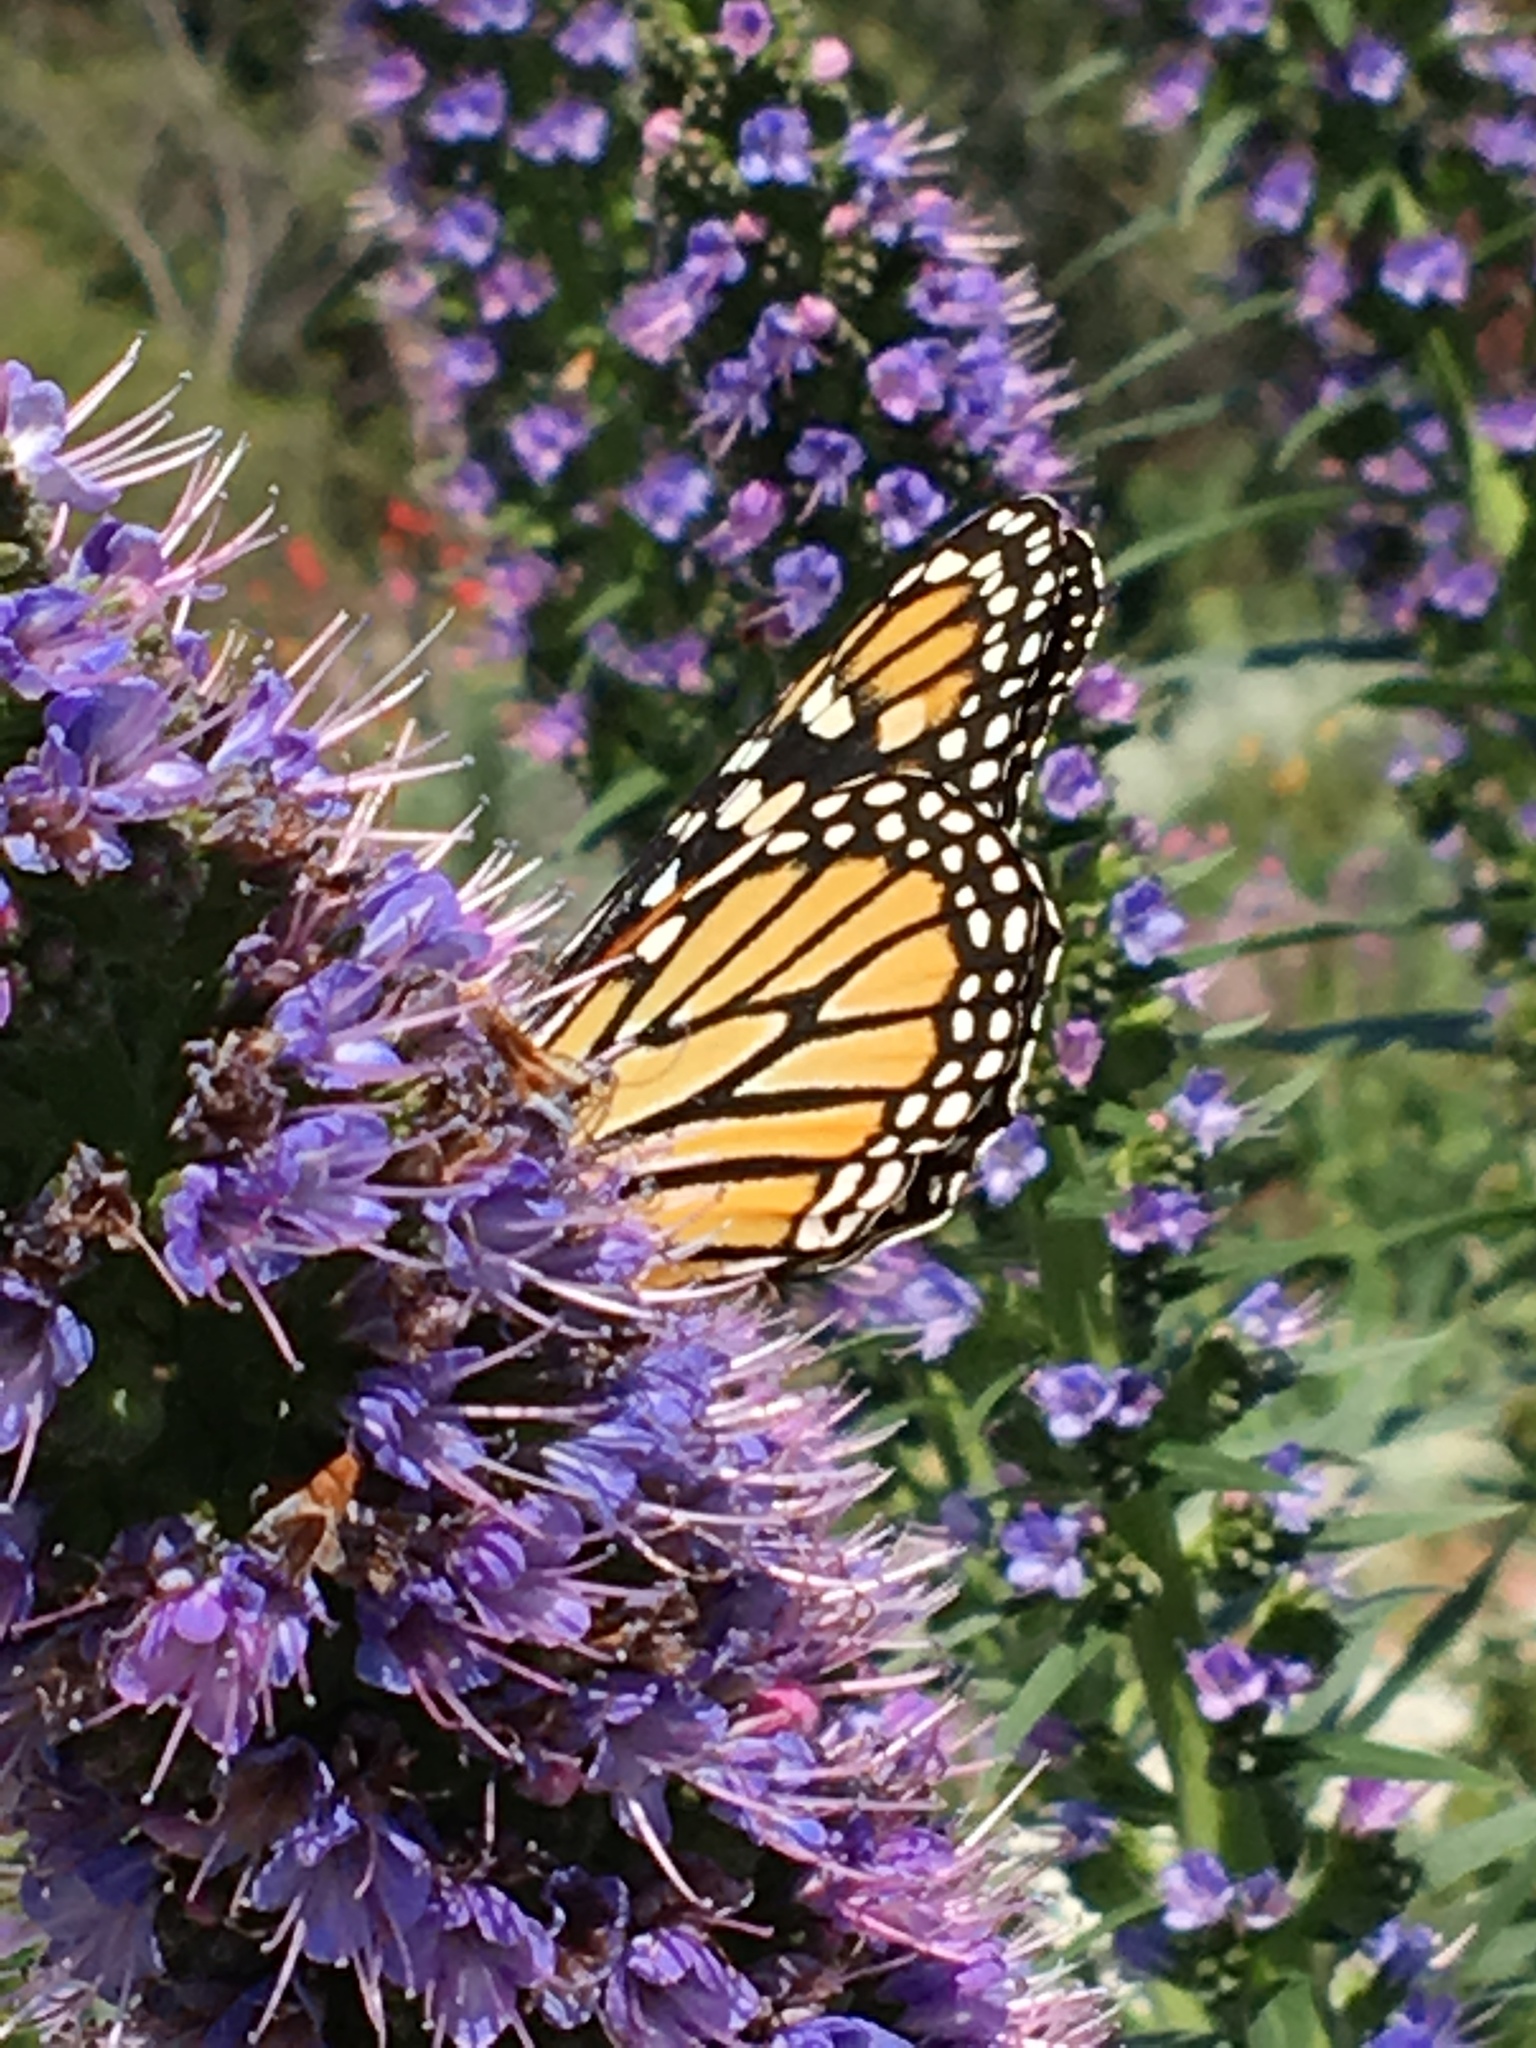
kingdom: Animalia
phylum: Arthropoda
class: Insecta
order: Lepidoptera
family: Nymphalidae
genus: Danaus
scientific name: Danaus plexippus
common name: Monarch
